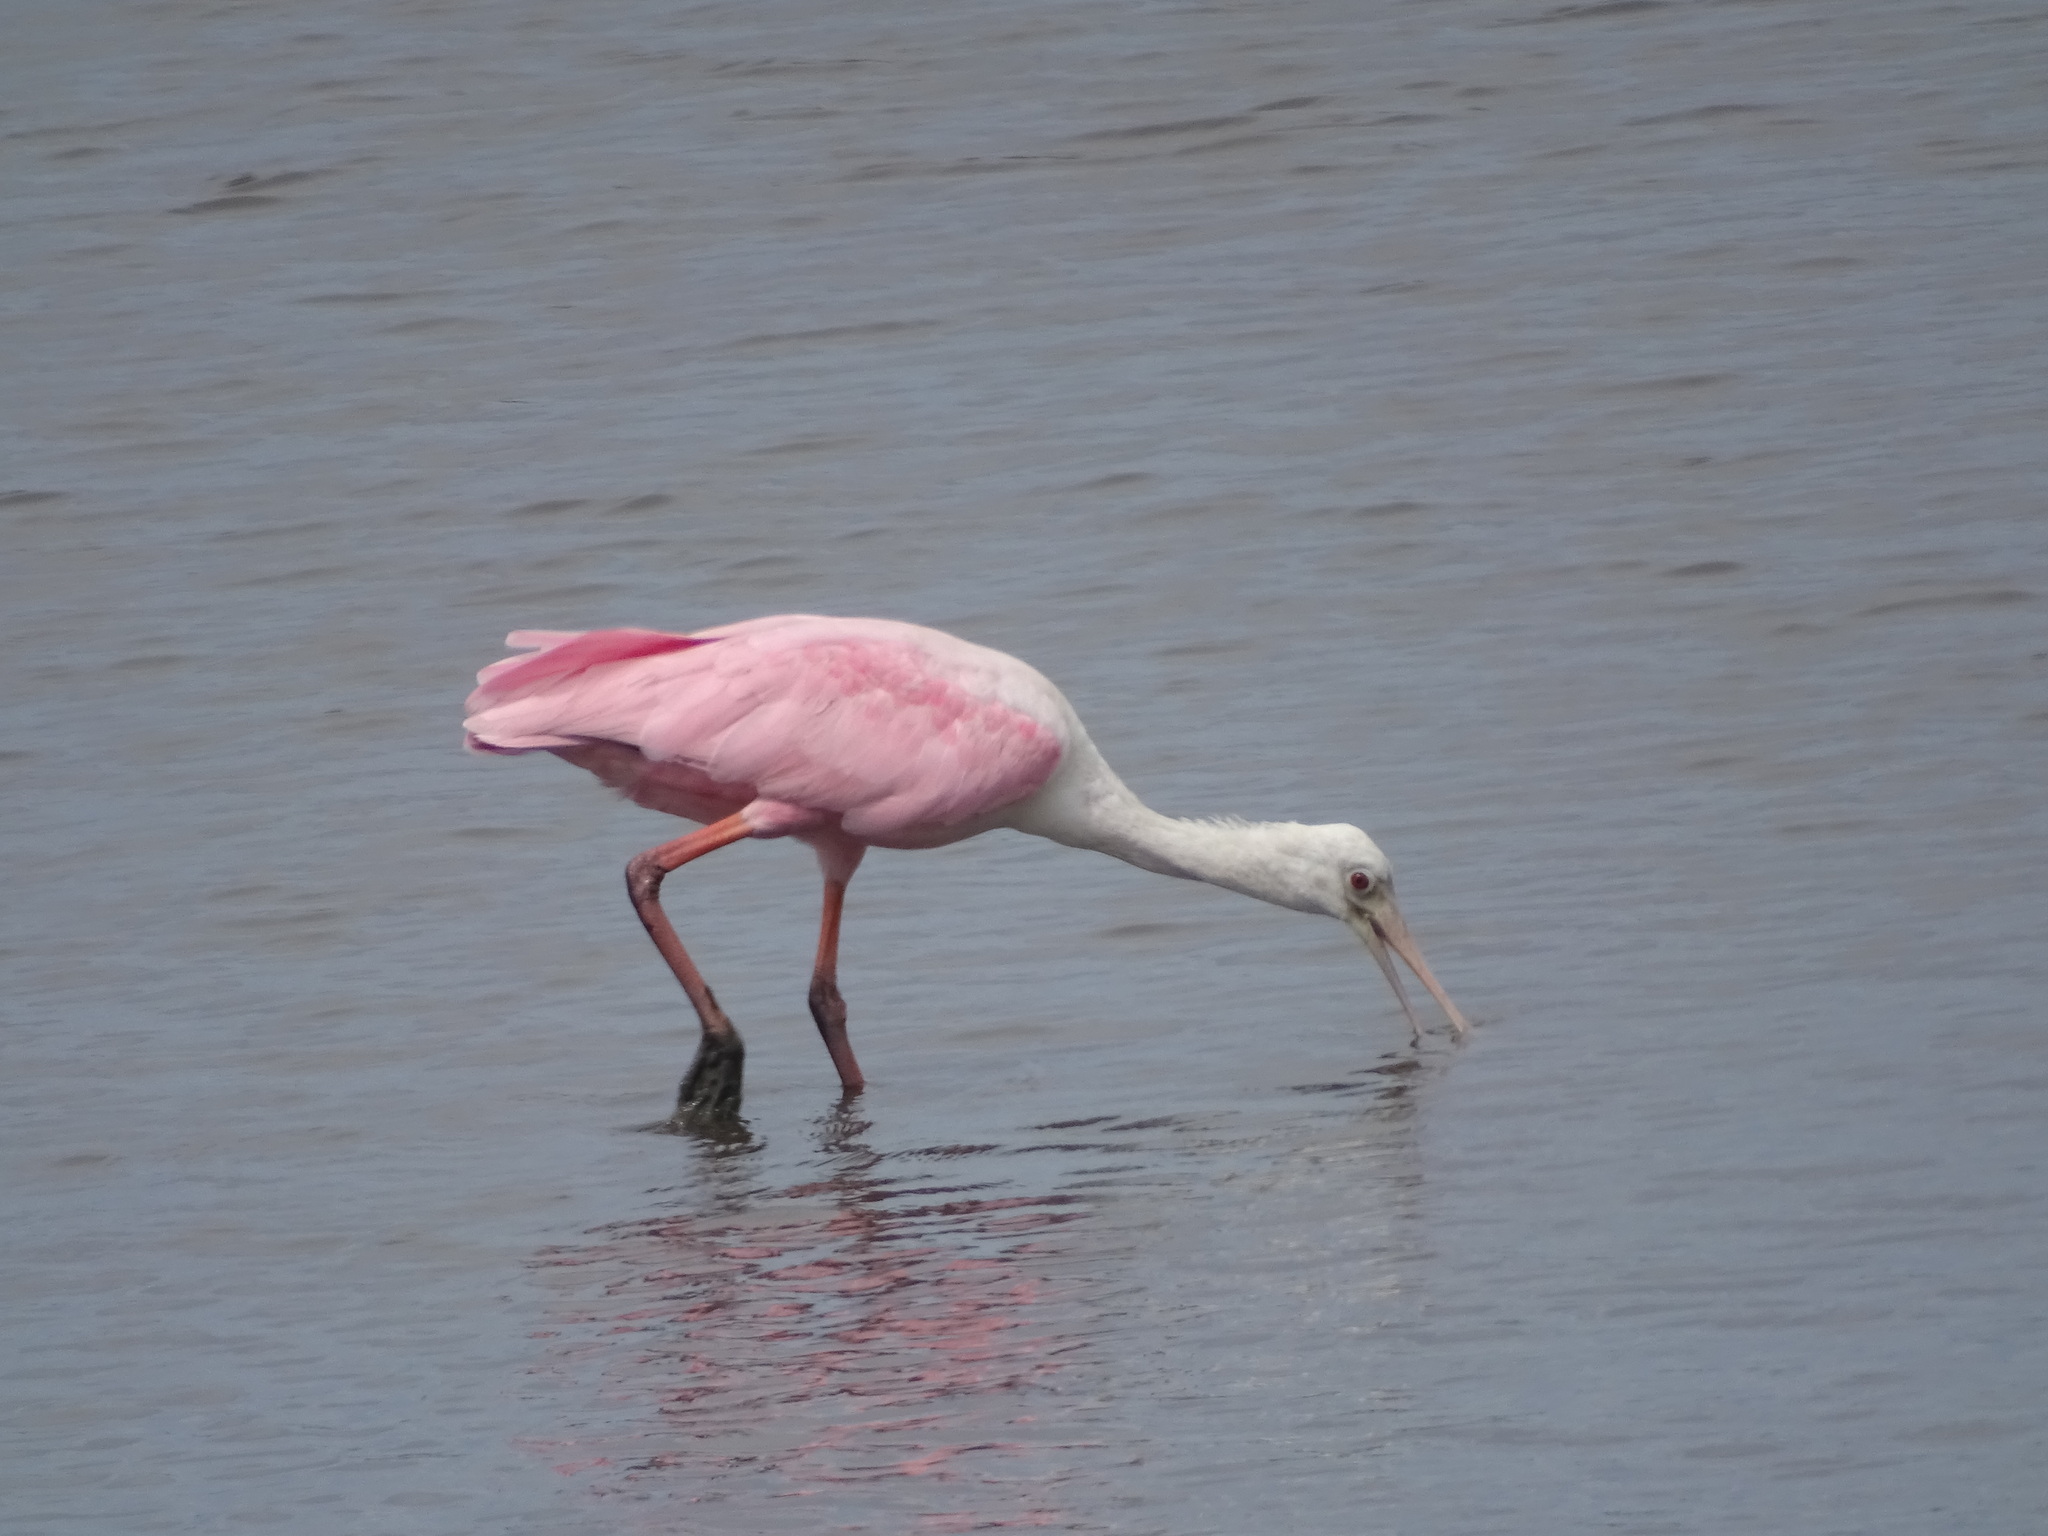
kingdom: Animalia
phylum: Chordata
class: Aves
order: Pelecaniformes
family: Threskiornithidae
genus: Platalea
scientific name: Platalea ajaja
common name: Roseate spoonbill
